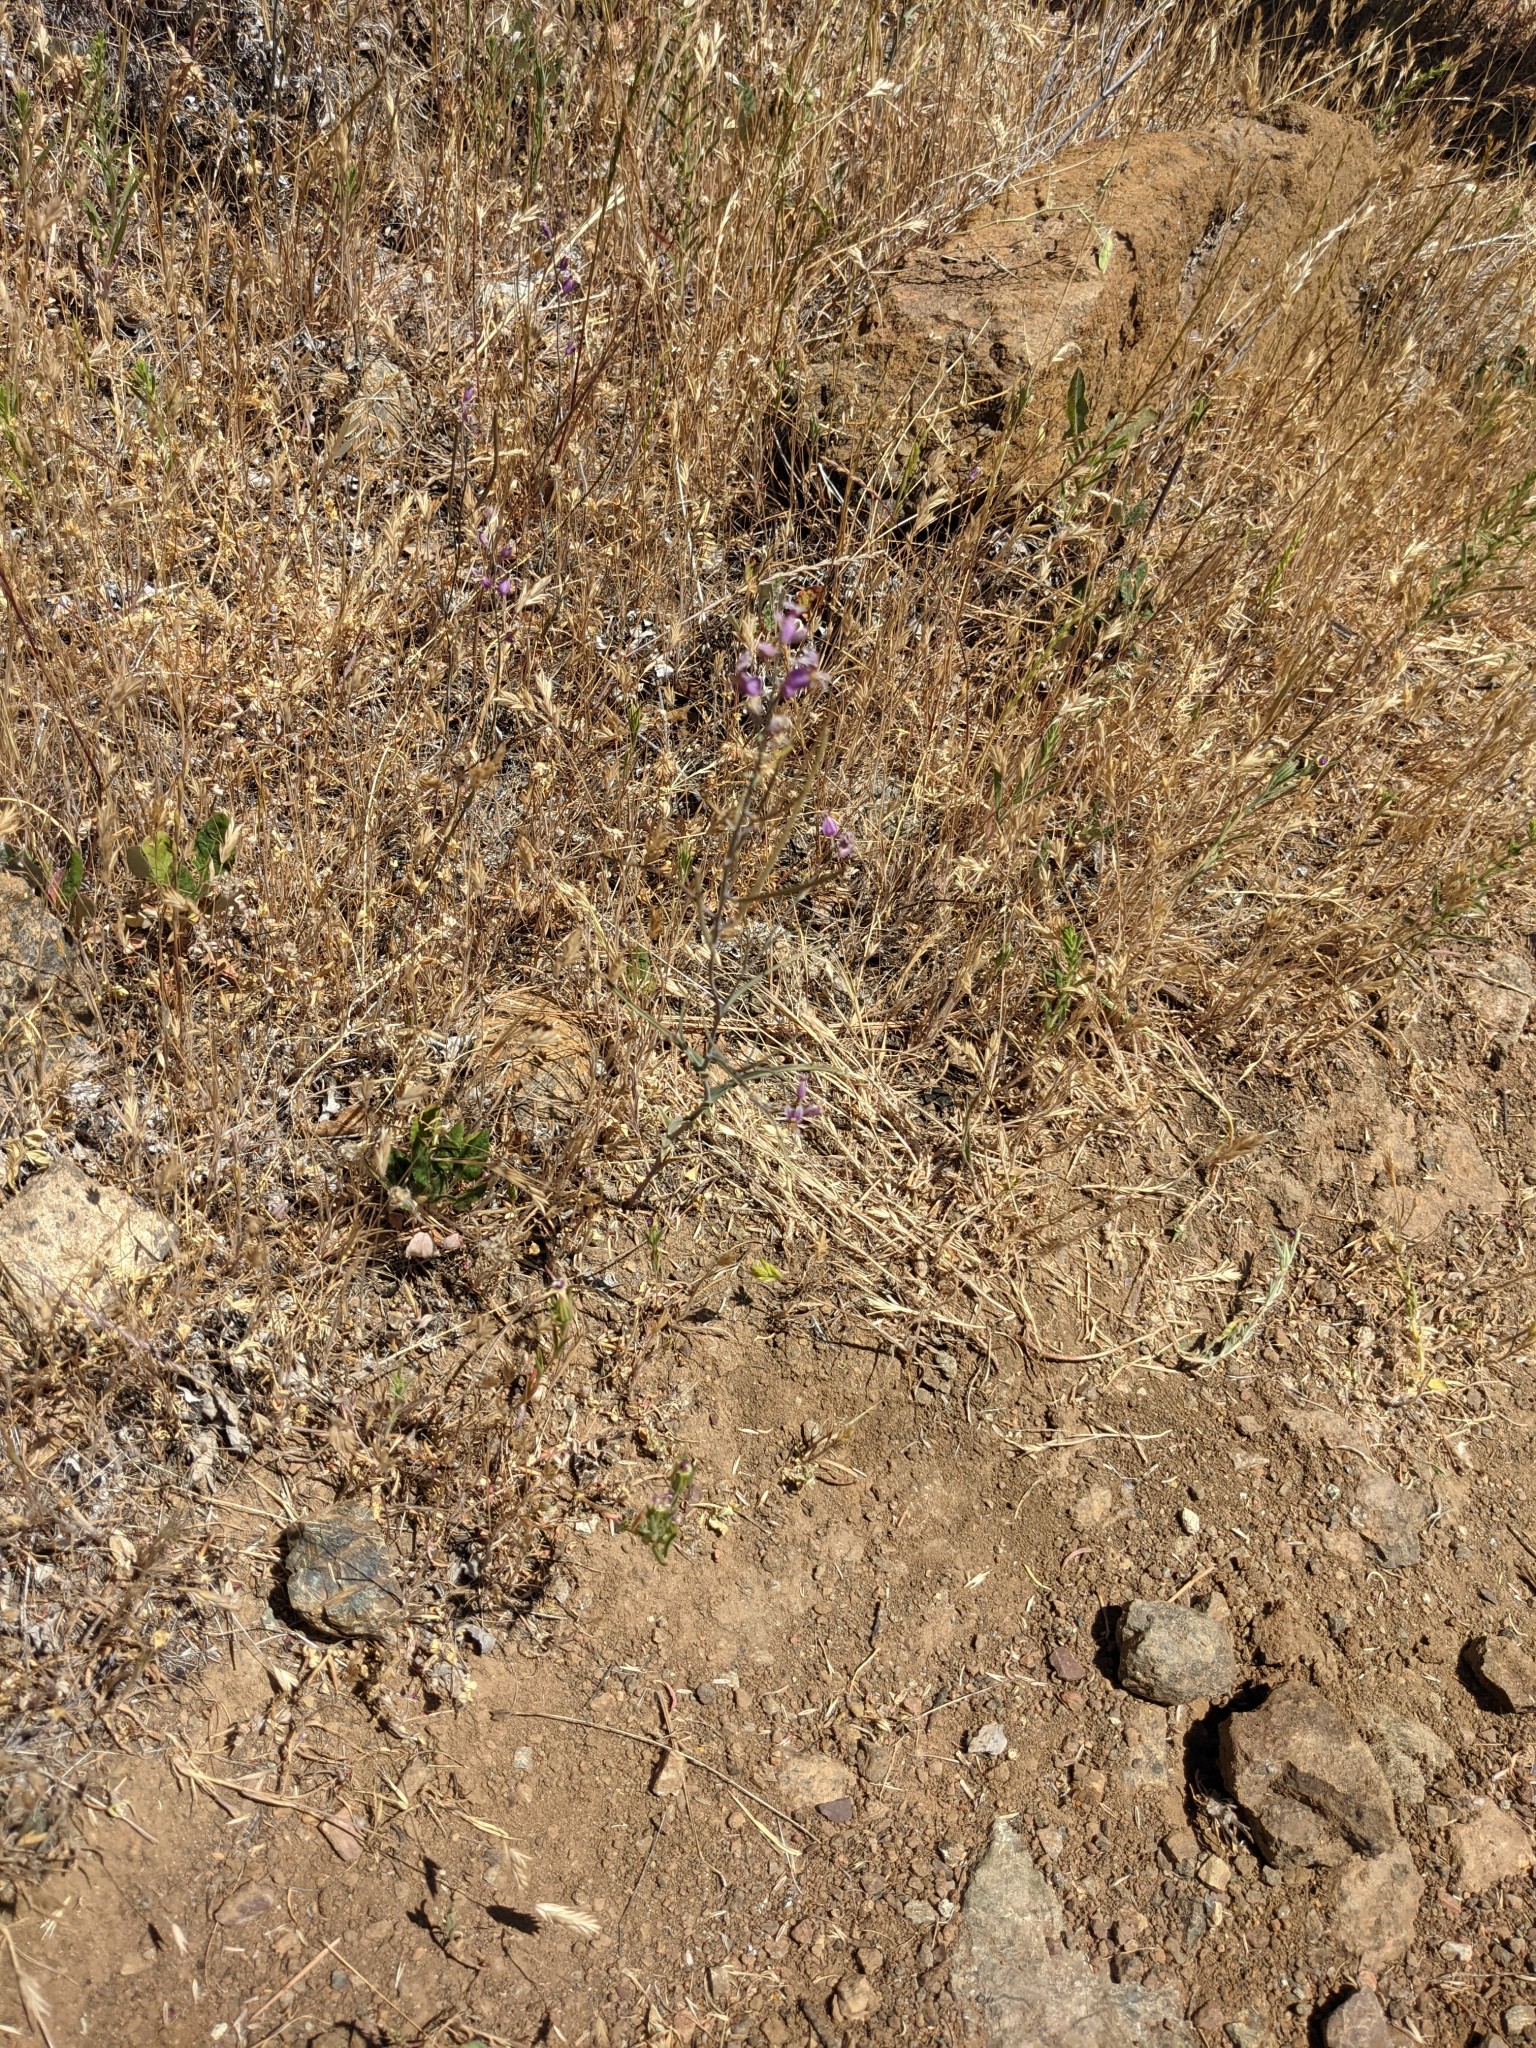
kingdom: Plantae
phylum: Tracheophyta
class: Magnoliopsida
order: Brassicales
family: Brassicaceae
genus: Streptanthus
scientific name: Streptanthus glandulosus
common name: Jewel-flower
